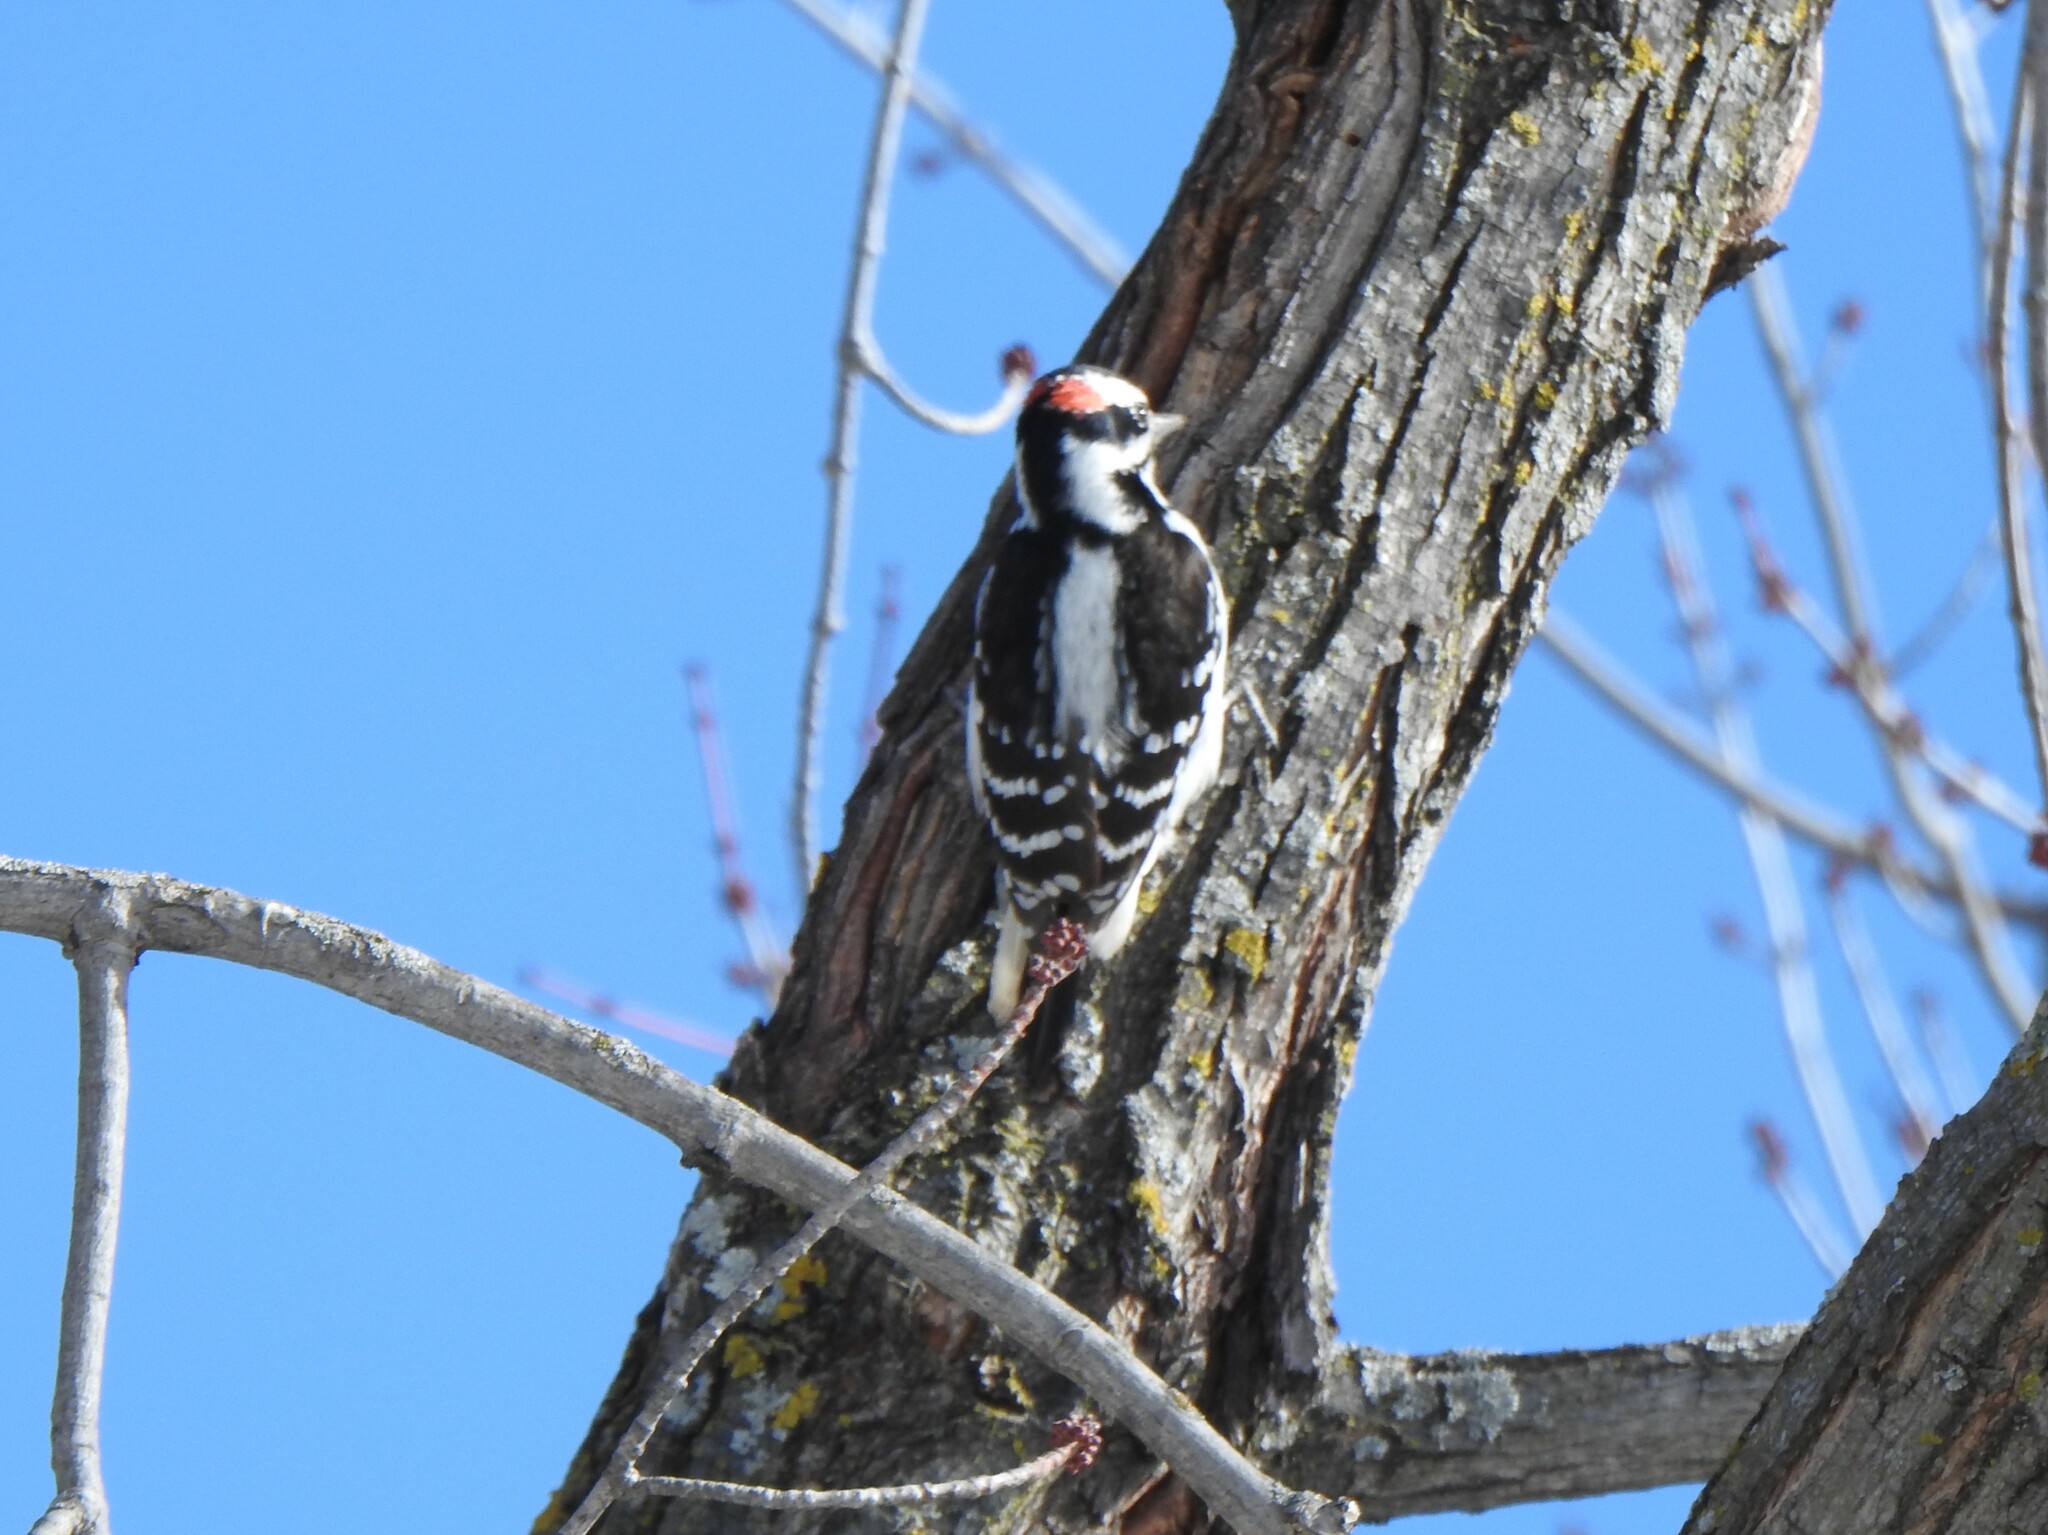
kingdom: Animalia
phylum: Chordata
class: Aves
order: Piciformes
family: Picidae
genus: Leuconotopicus
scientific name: Leuconotopicus villosus
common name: Hairy woodpecker
